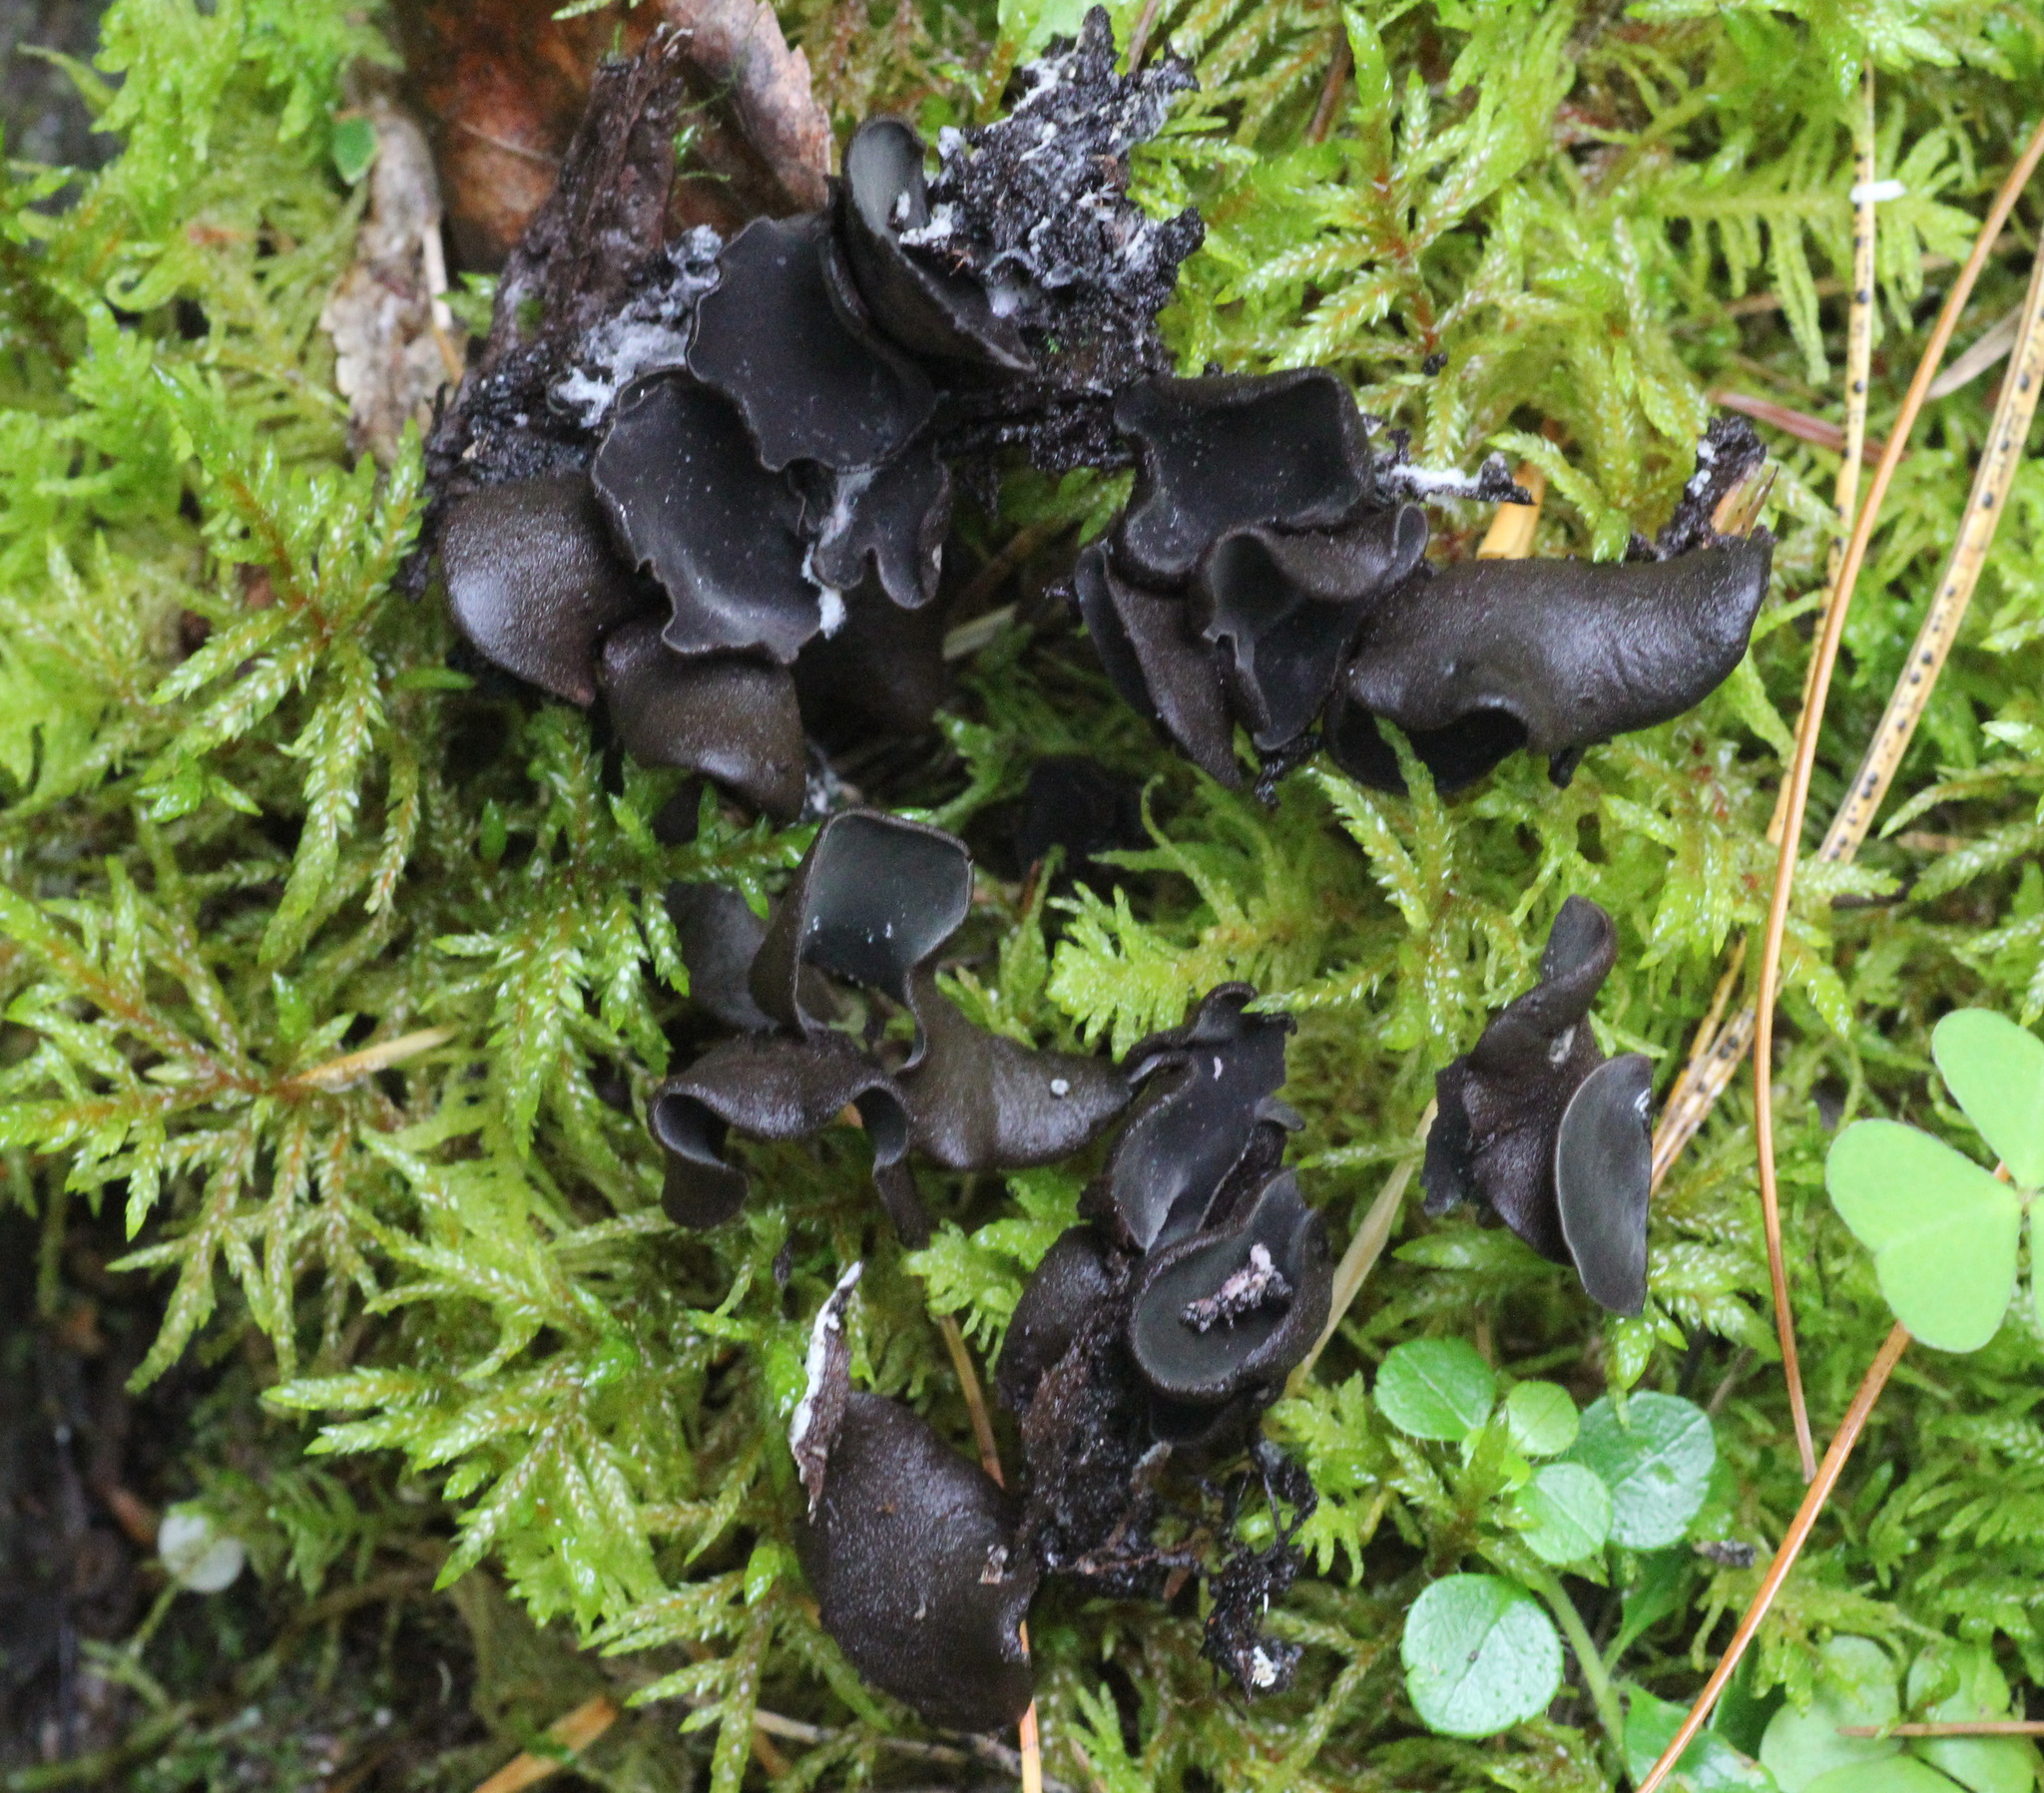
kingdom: Fungi
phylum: Ascomycota
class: Leotiomycetes
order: Helotiales
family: Cordieritidaceae
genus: Diplocarpa
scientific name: Diplocarpa irregularis
